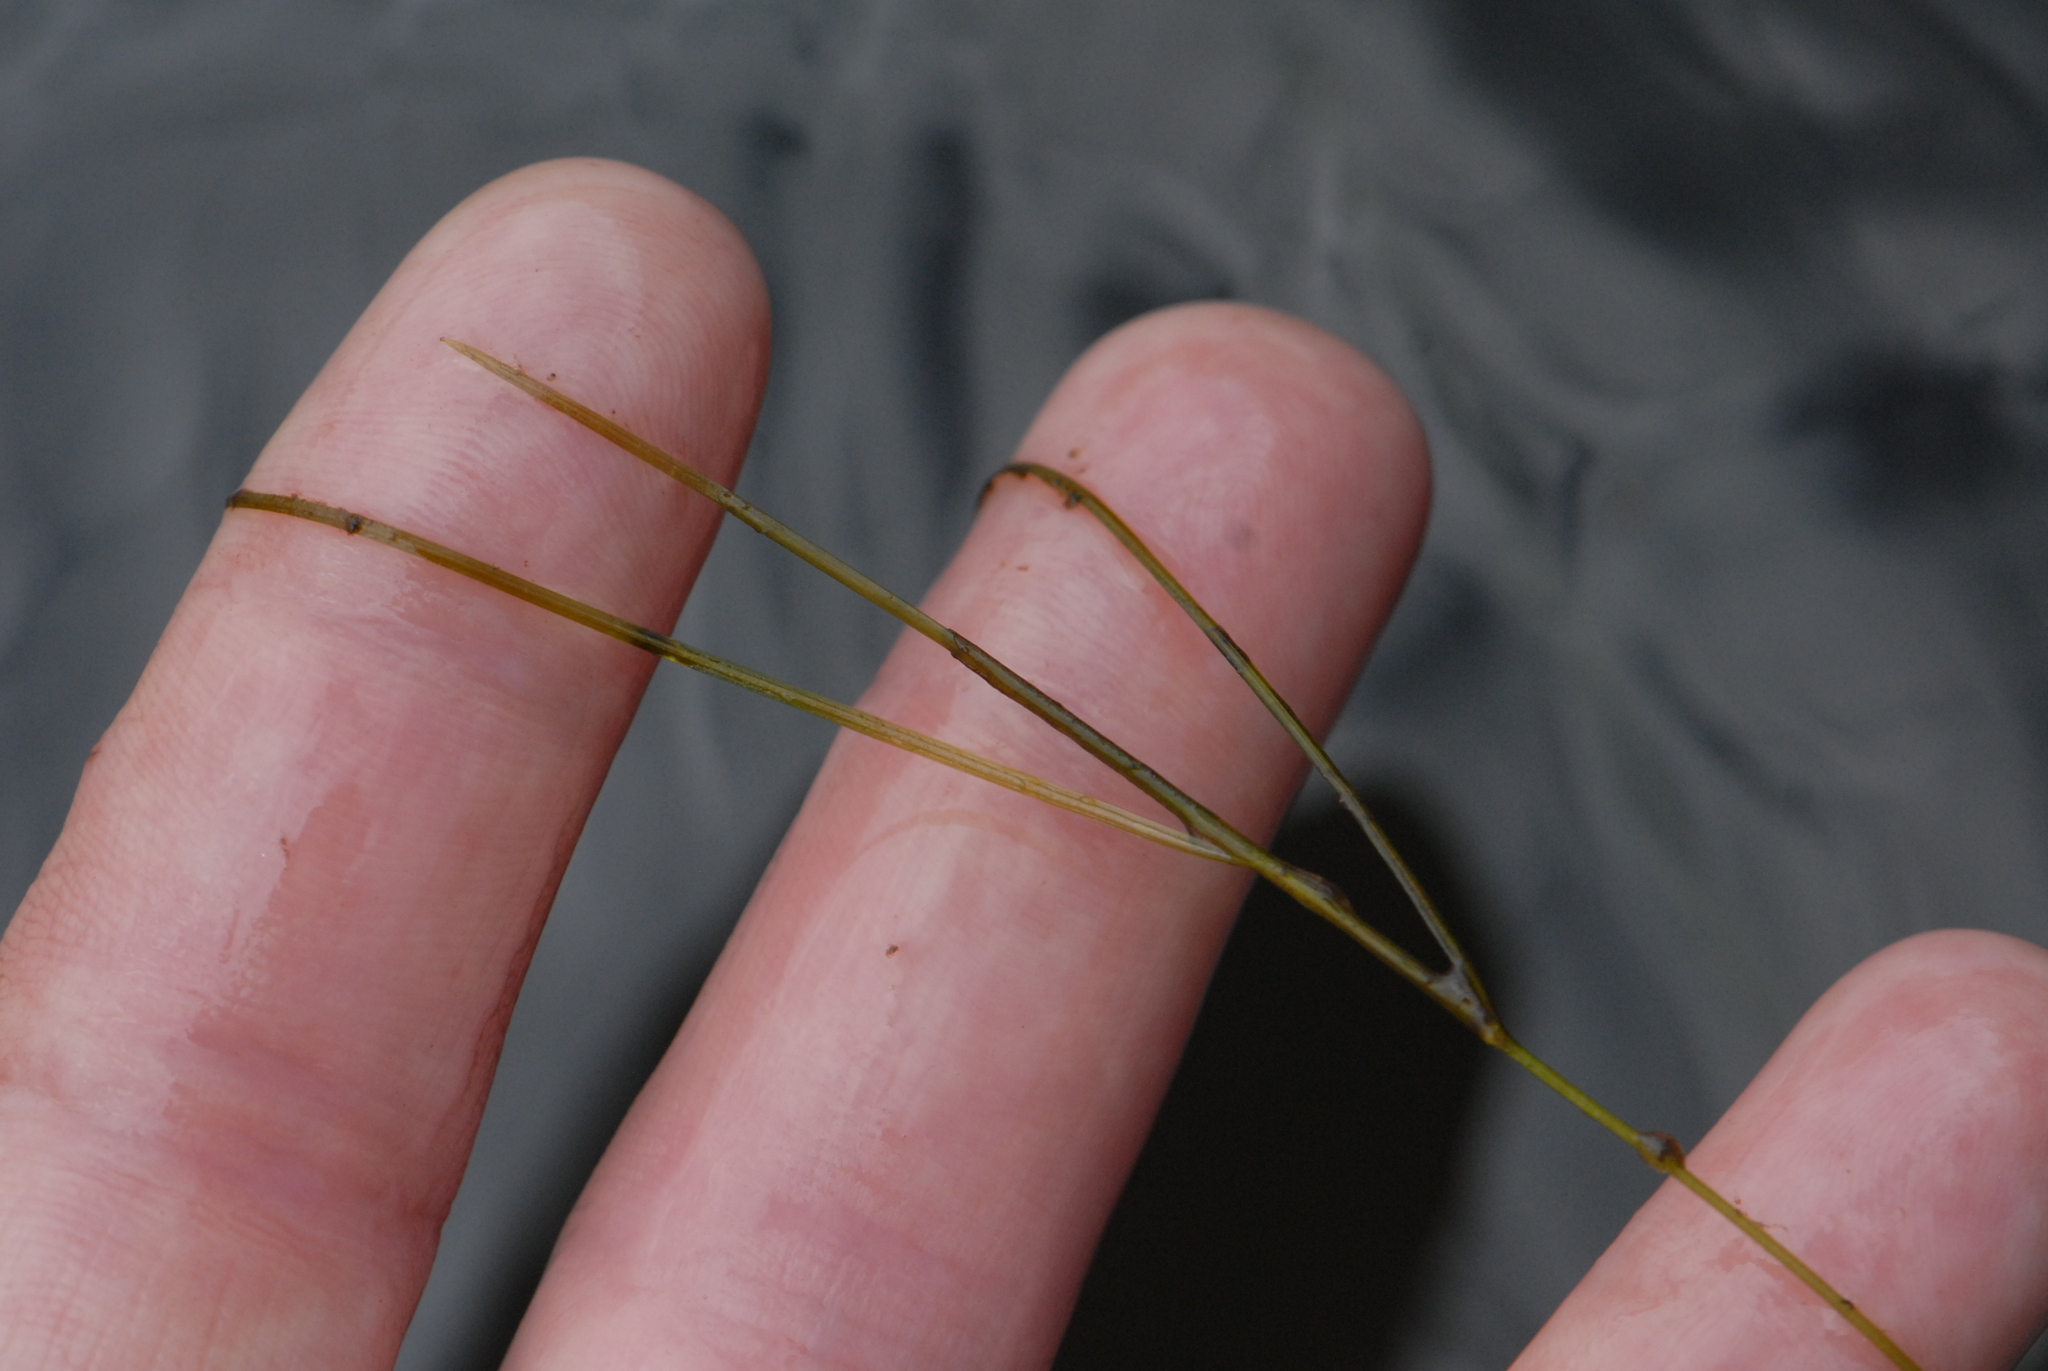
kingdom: Plantae
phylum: Tracheophyta
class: Liliopsida
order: Alismatales
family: Potamogetonaceae
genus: Potamogeton
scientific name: Potamogeton trichoides
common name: Hairlike pondweed
